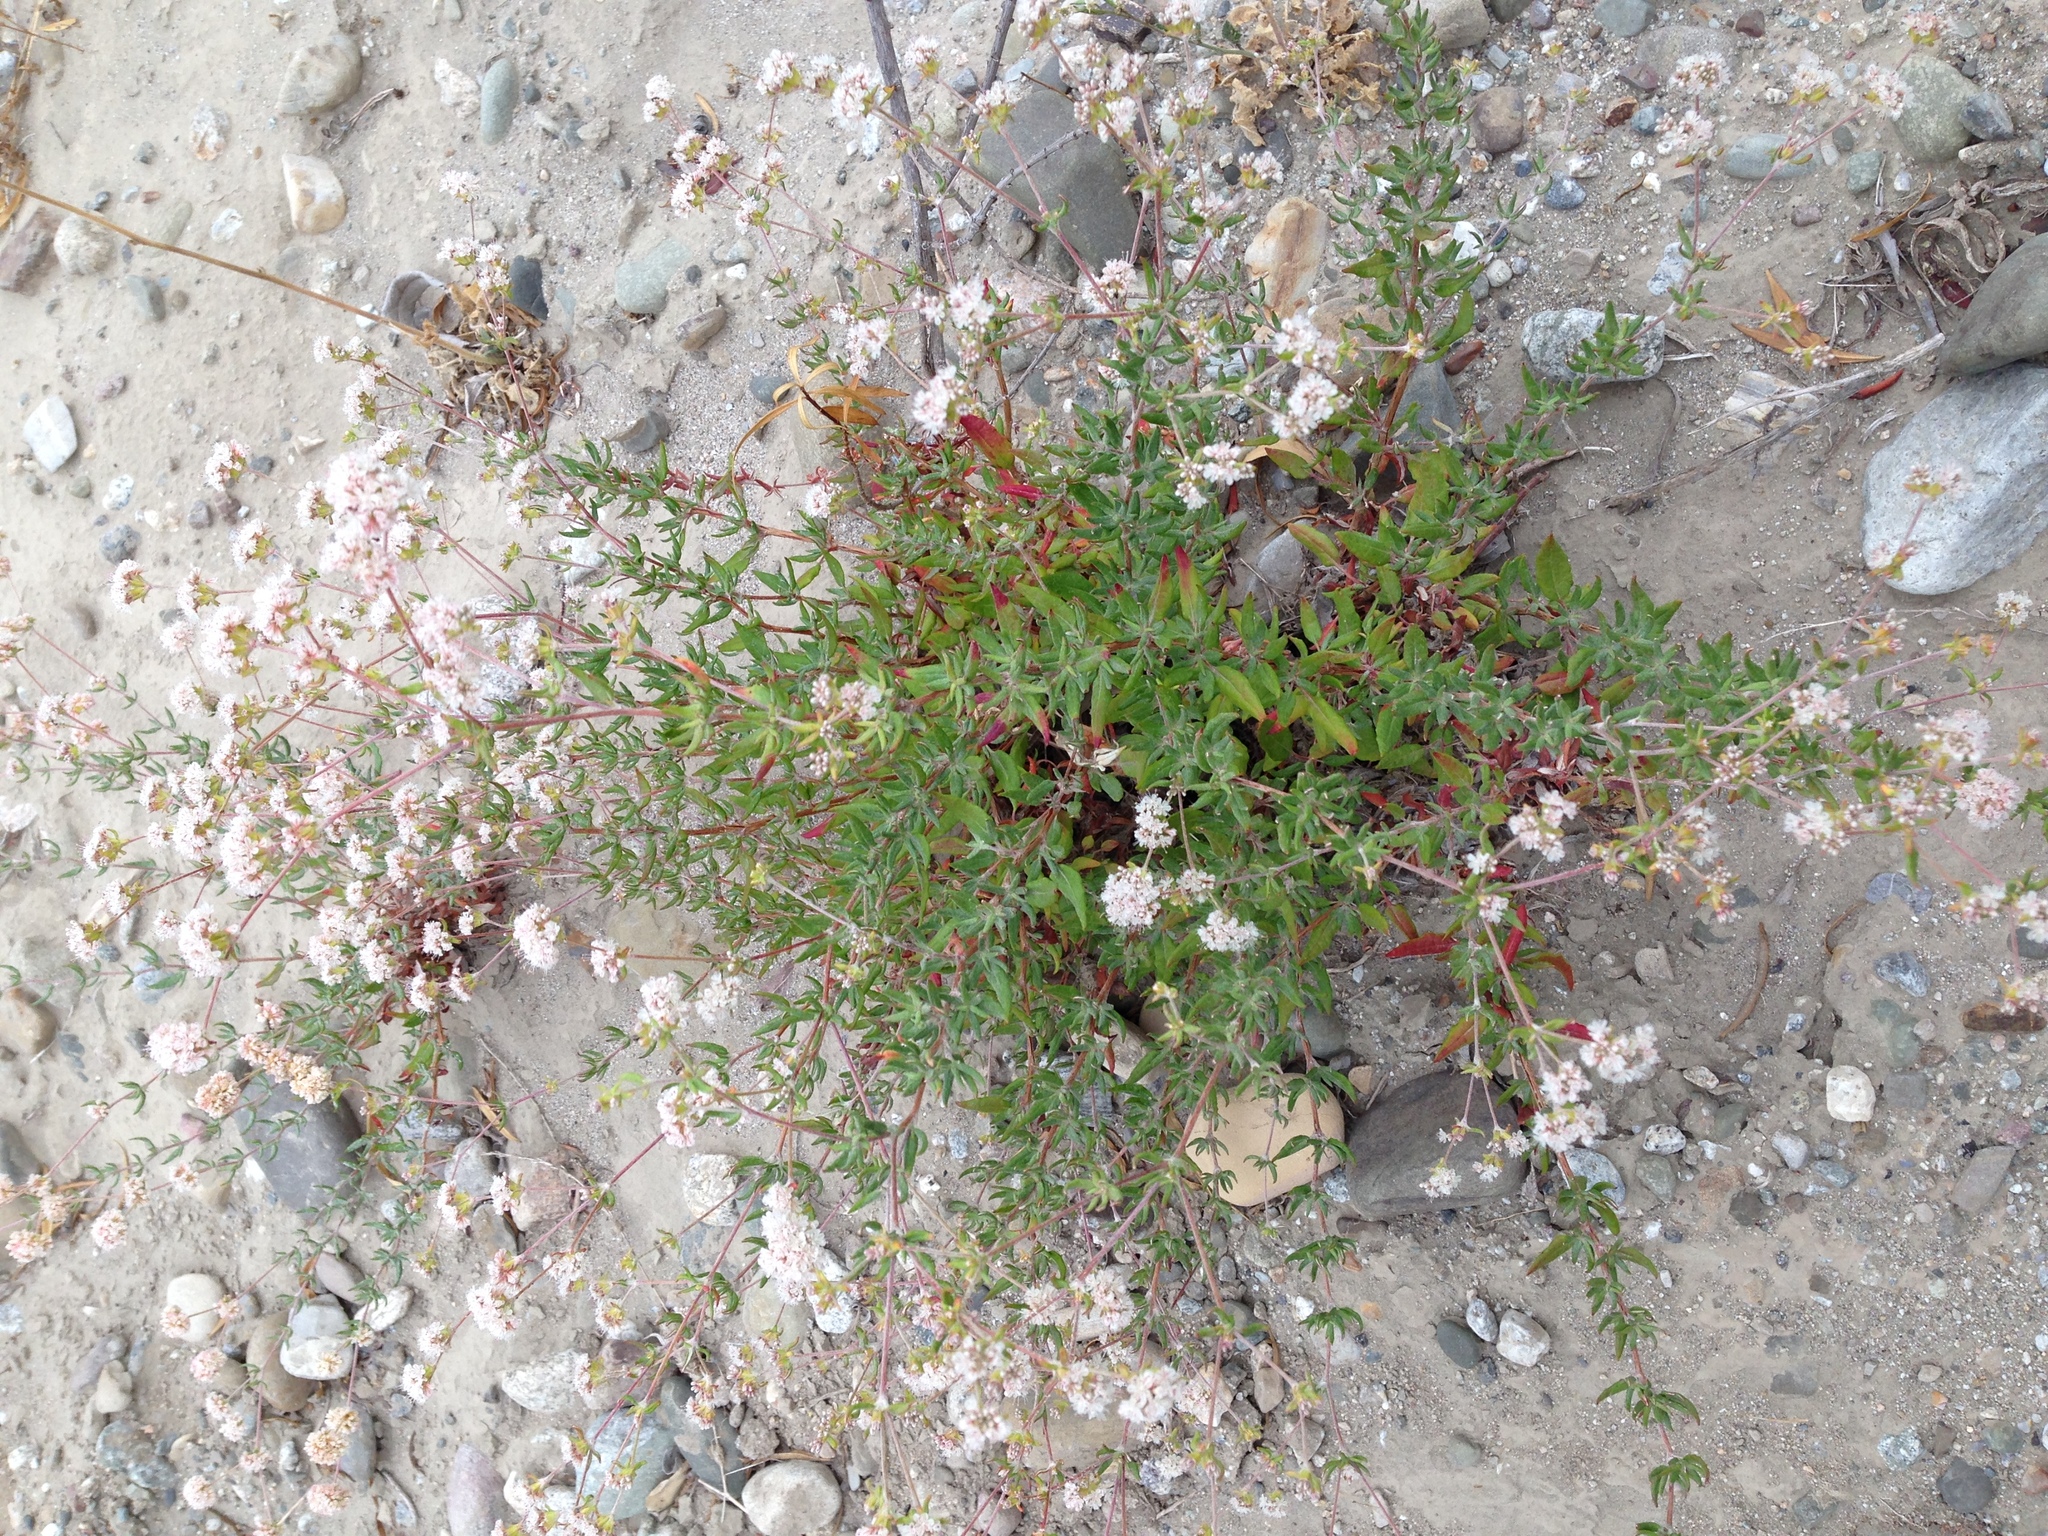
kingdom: Plantae
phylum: Tracheophyta
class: Magnoliopsida
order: Caryophyllales
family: Polygonaceae
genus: Eriogonum
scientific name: Eriogonum parvifolium
